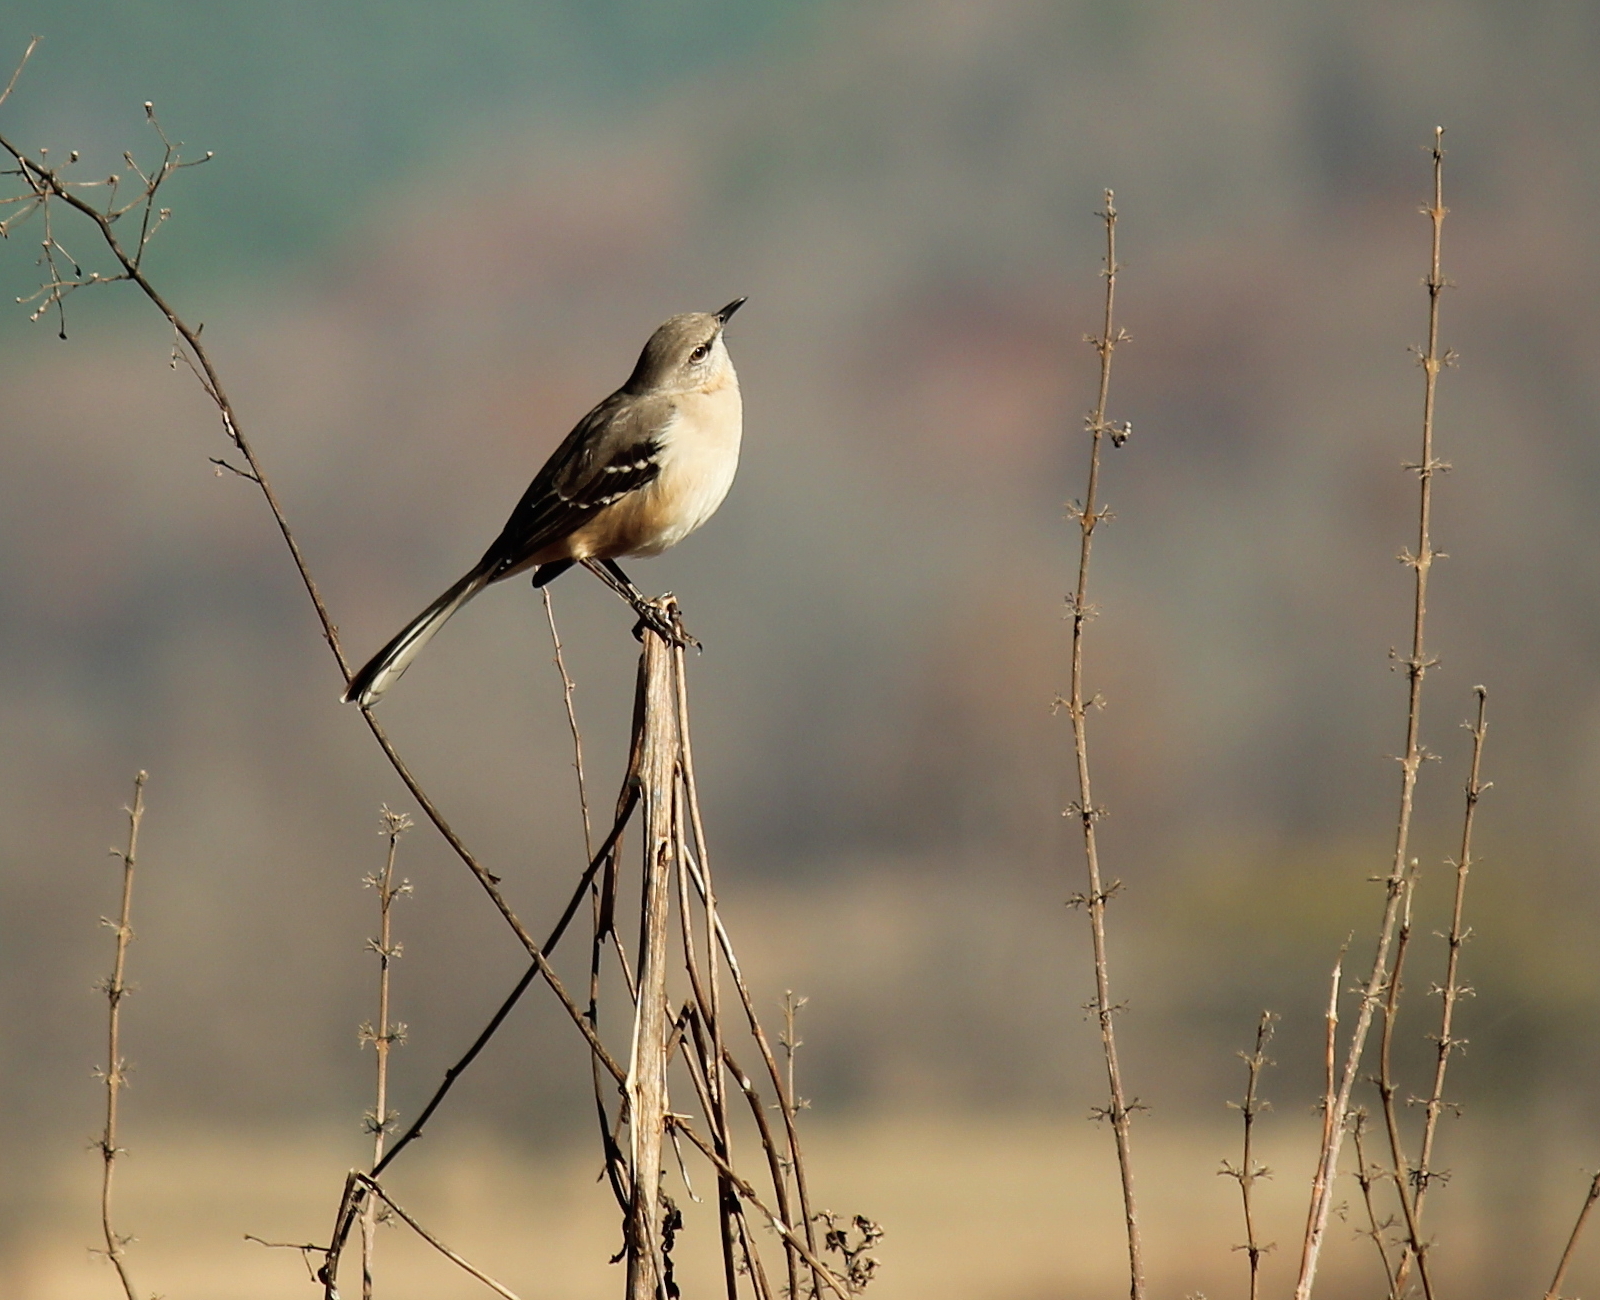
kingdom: Animalia
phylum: Chordata
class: Aves
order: Passeriformes
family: Mimidae
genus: Mimus
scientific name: Mimus polyglottos
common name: Northern mockingbird
